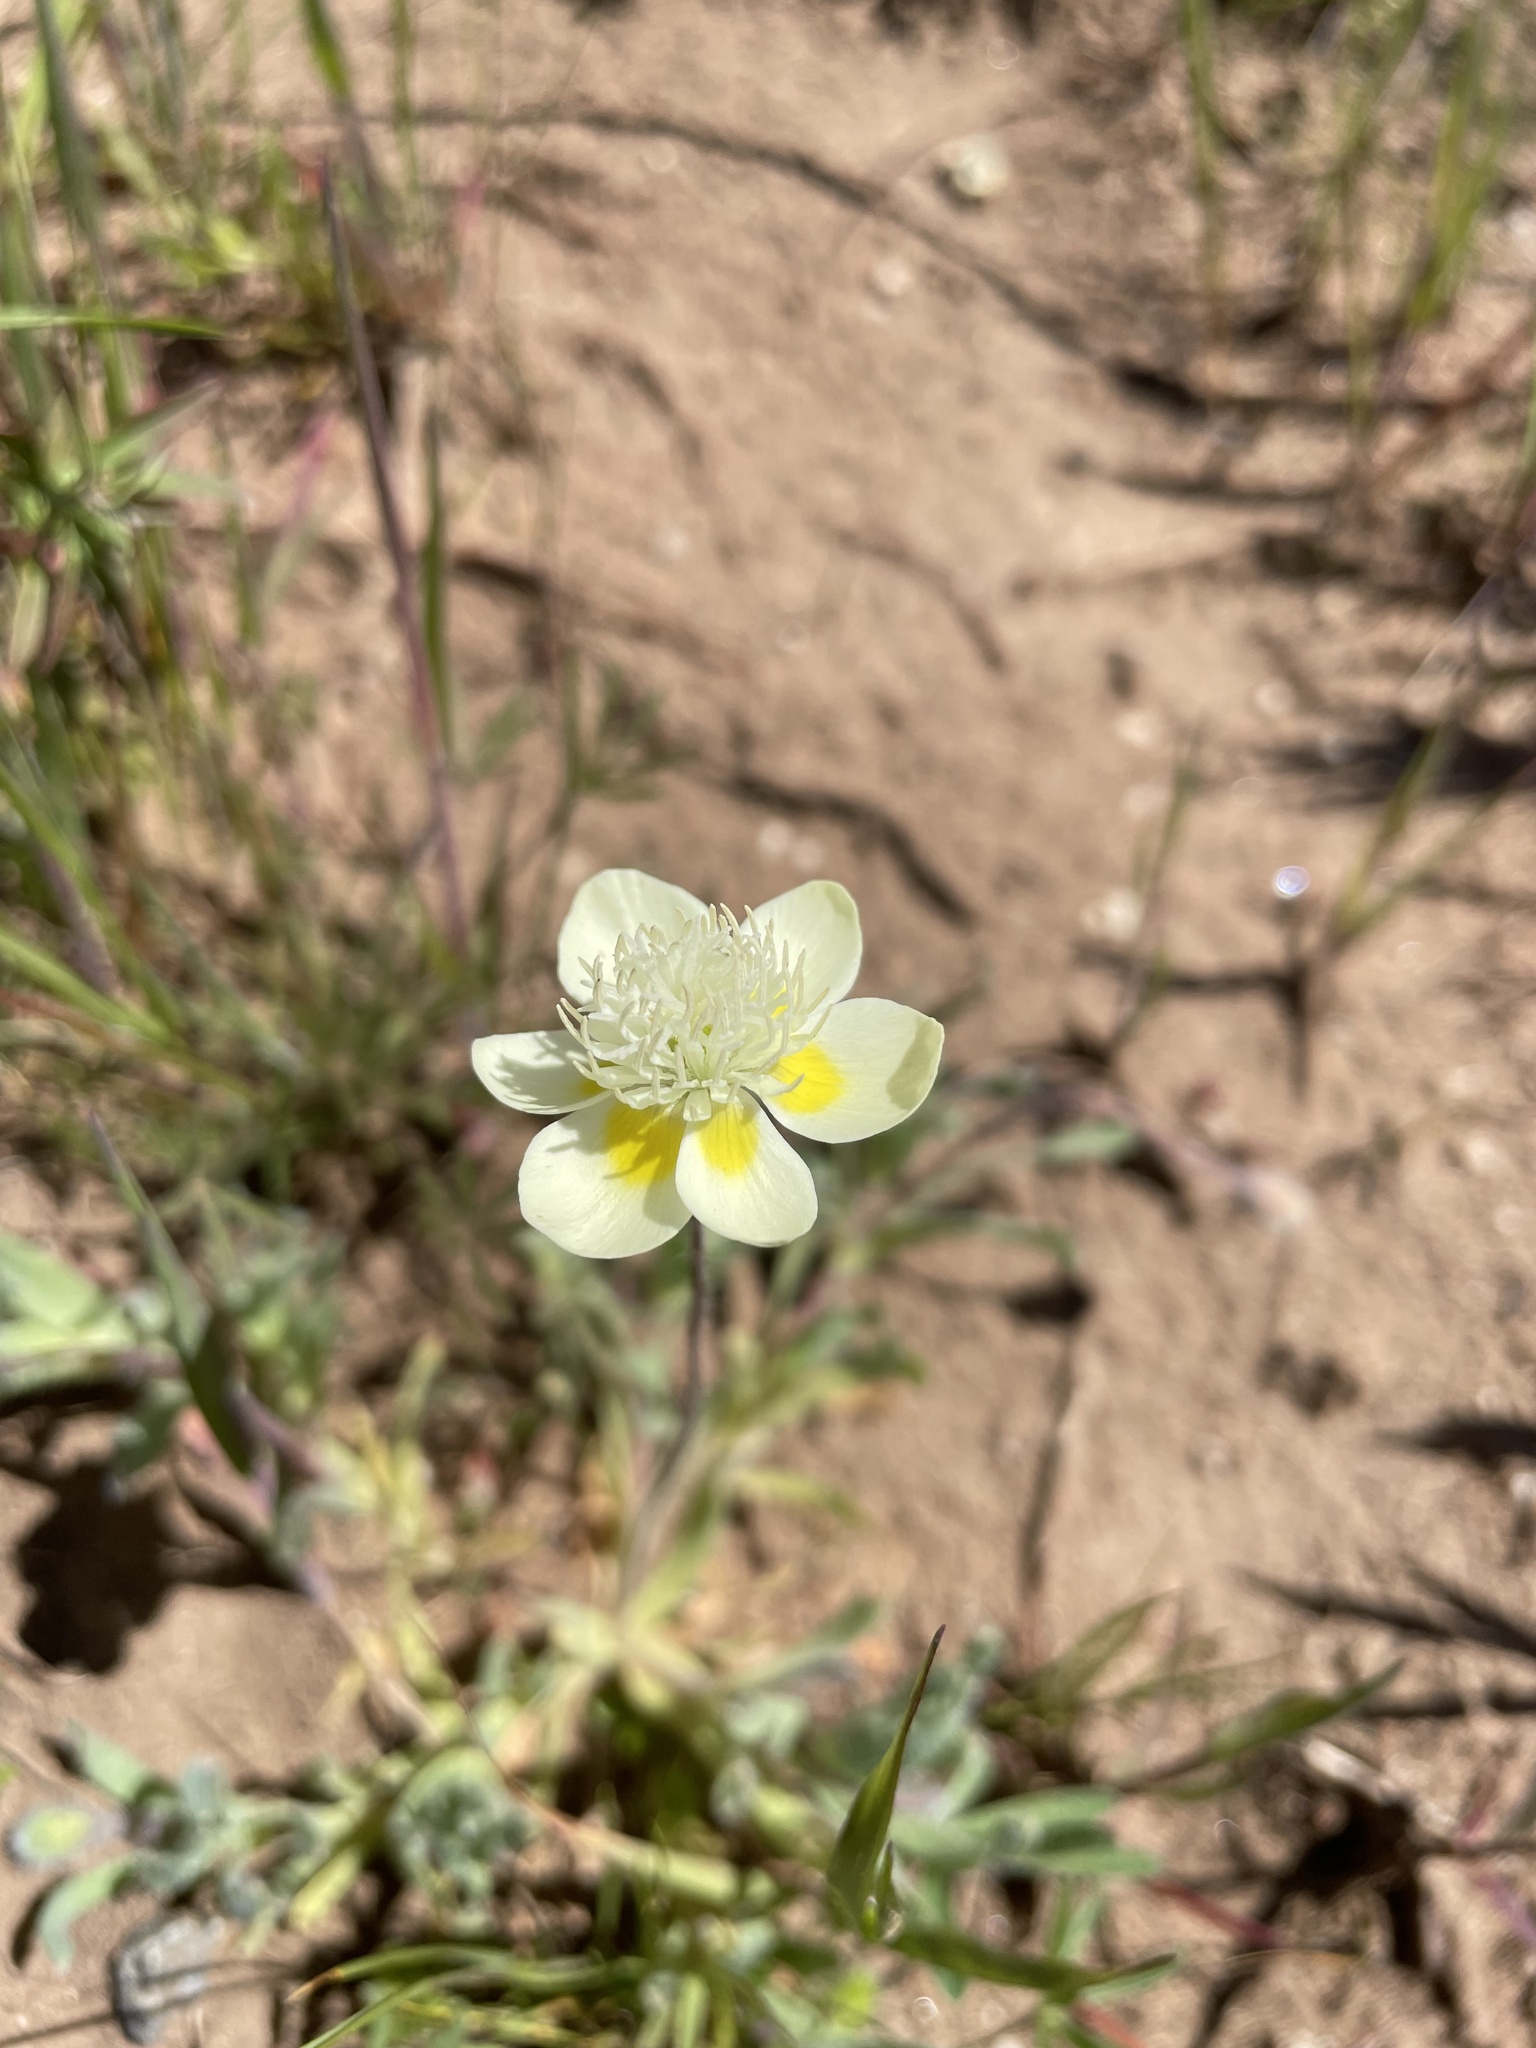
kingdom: Plantae
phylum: Tracheophyta
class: Magnoliopsida
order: Ranunculales
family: Papaveraceae
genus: Platystemon
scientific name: Platystemon californicus
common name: Cream-cups
